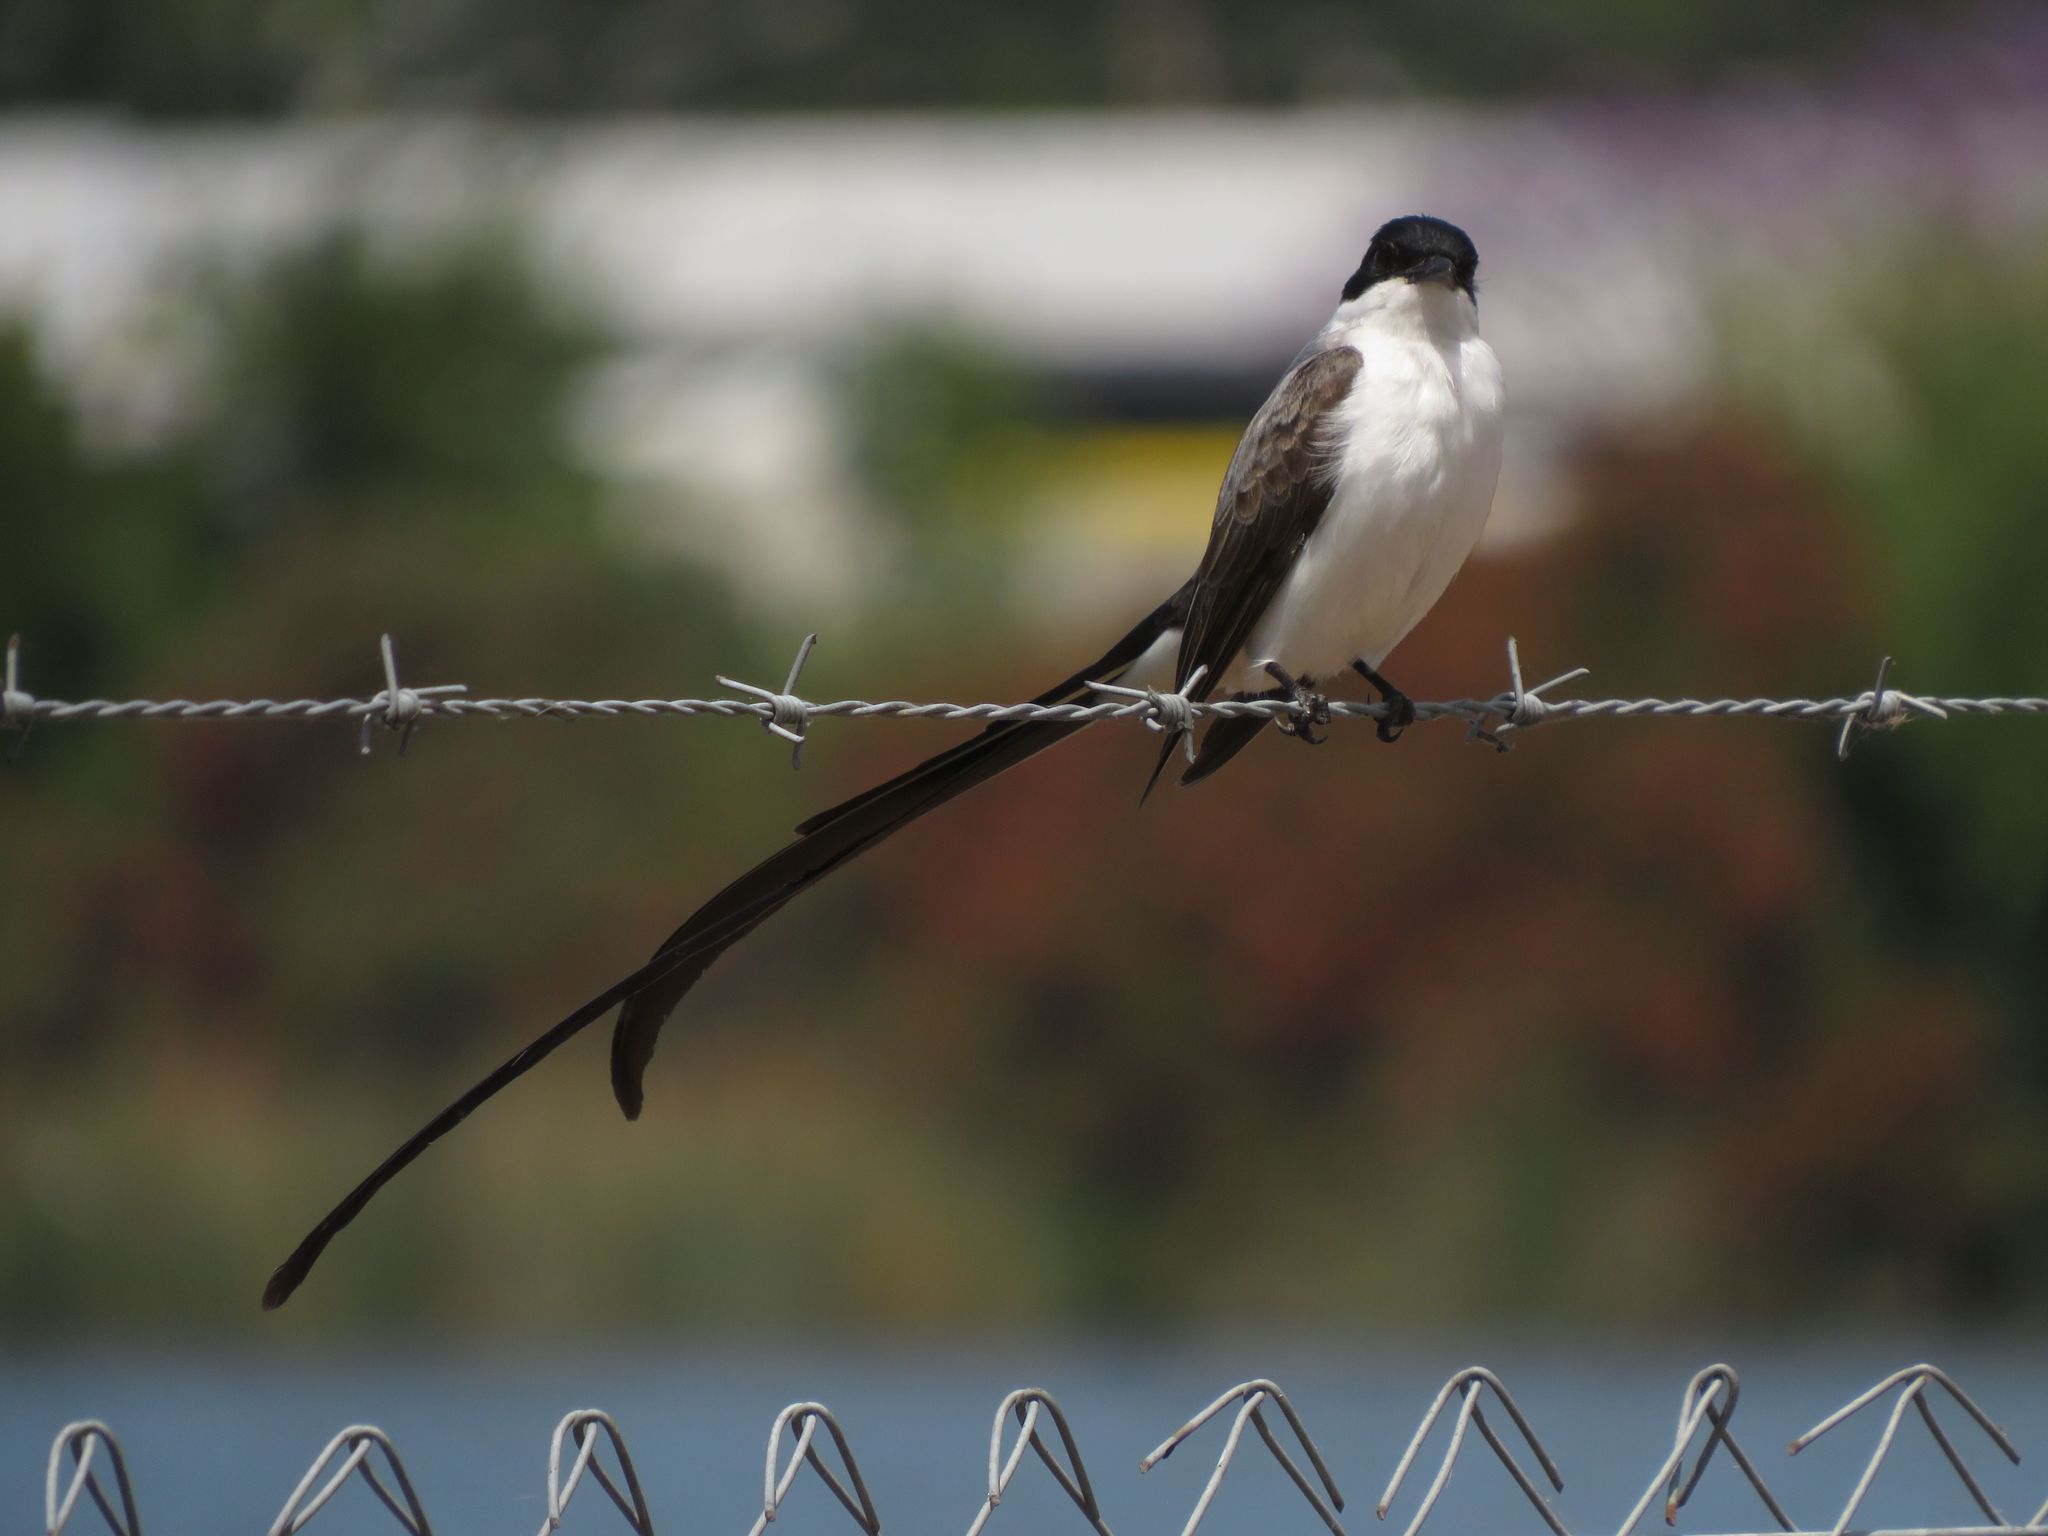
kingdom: Animalia
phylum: Chordata
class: Aves
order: Passeriformes
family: Tyrannidae
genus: Tyrannus
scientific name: Tyrannus savana
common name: Fork-tailed flycatcher
